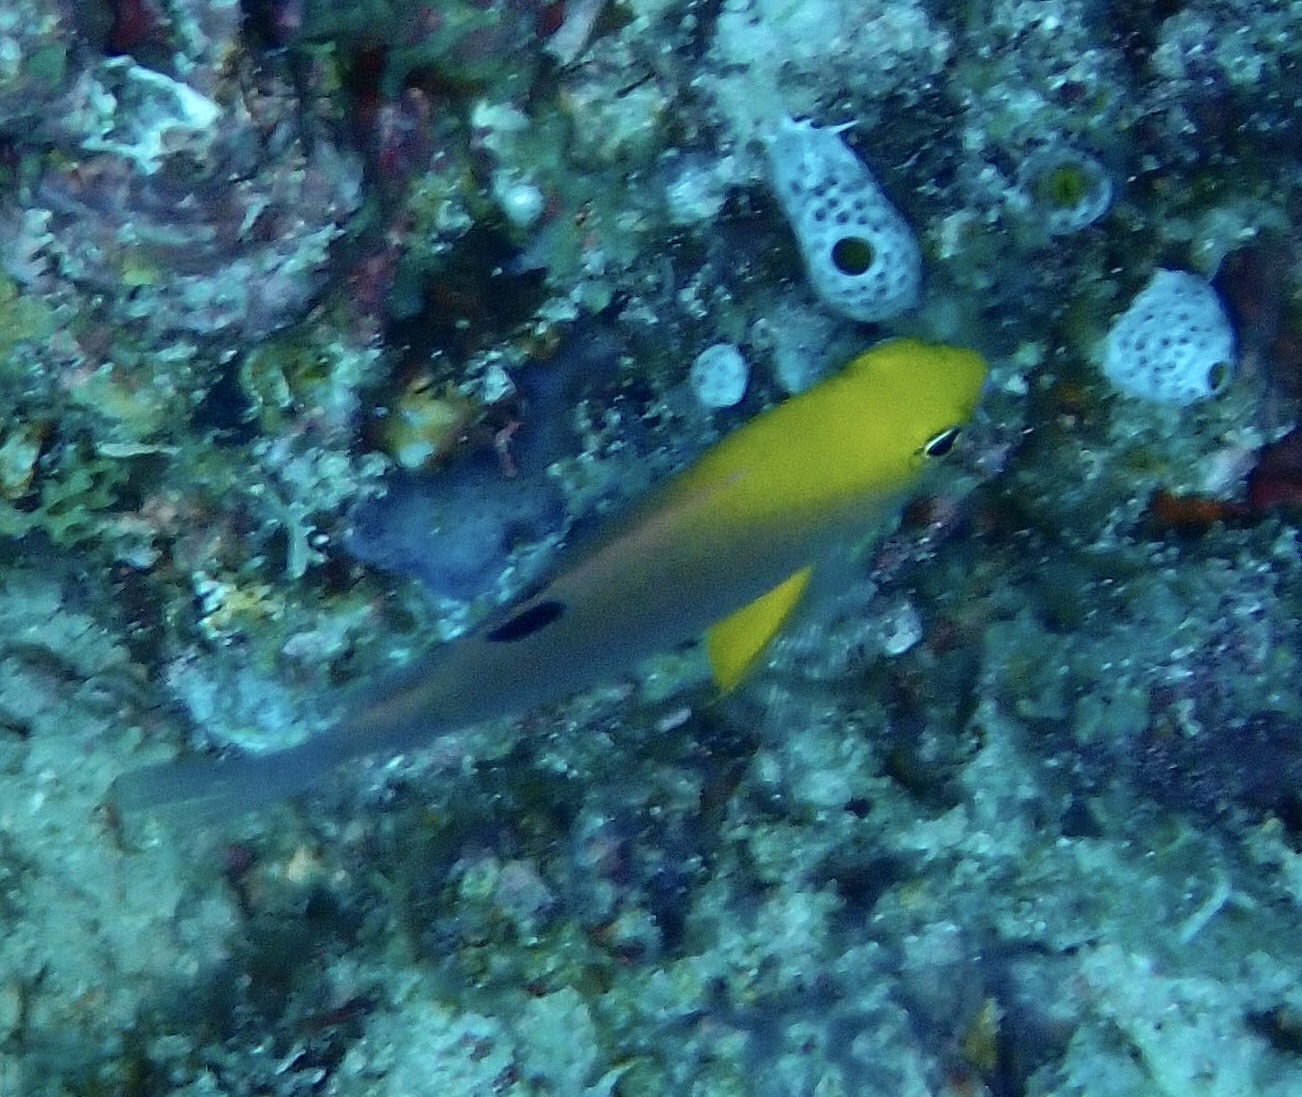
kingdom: Animalia
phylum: Chordata
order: Perciformes
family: Pomacentridae
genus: Chrysiptera
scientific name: Chrysiptera talboti
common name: Talbot's demoiselle
